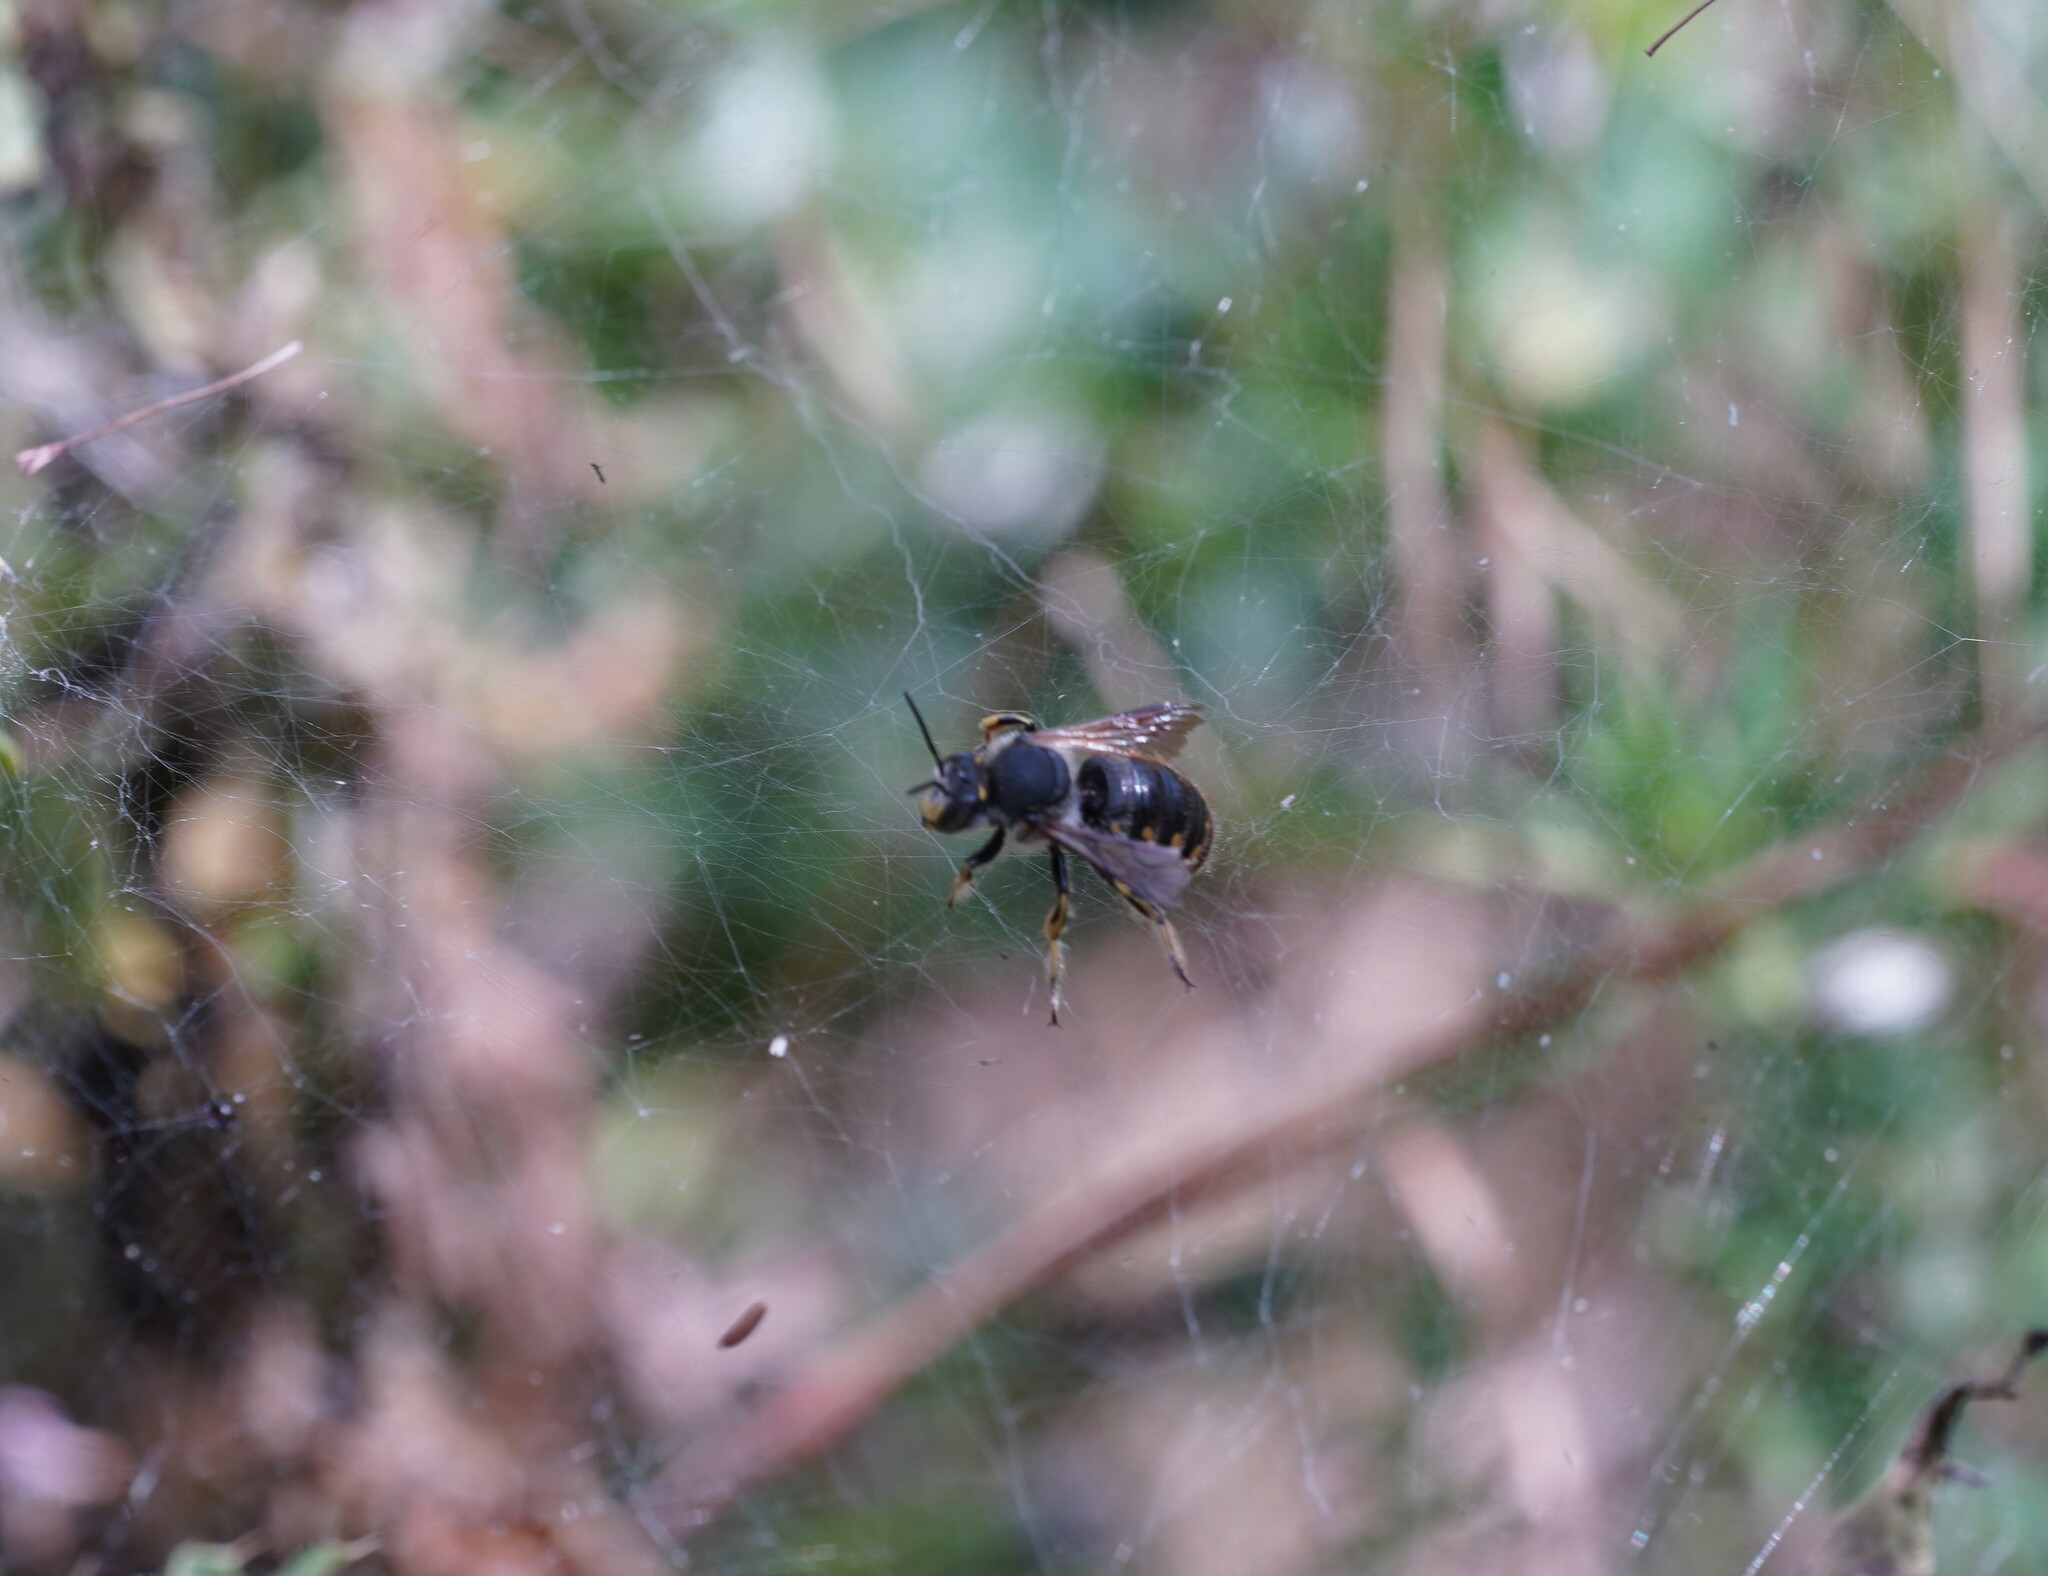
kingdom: Animalia
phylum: Arthropoda
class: Insecta
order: Hymenoptera
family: Megachilidae
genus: Anthidium
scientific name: Anthidium manicatum
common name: Wool carder bee
